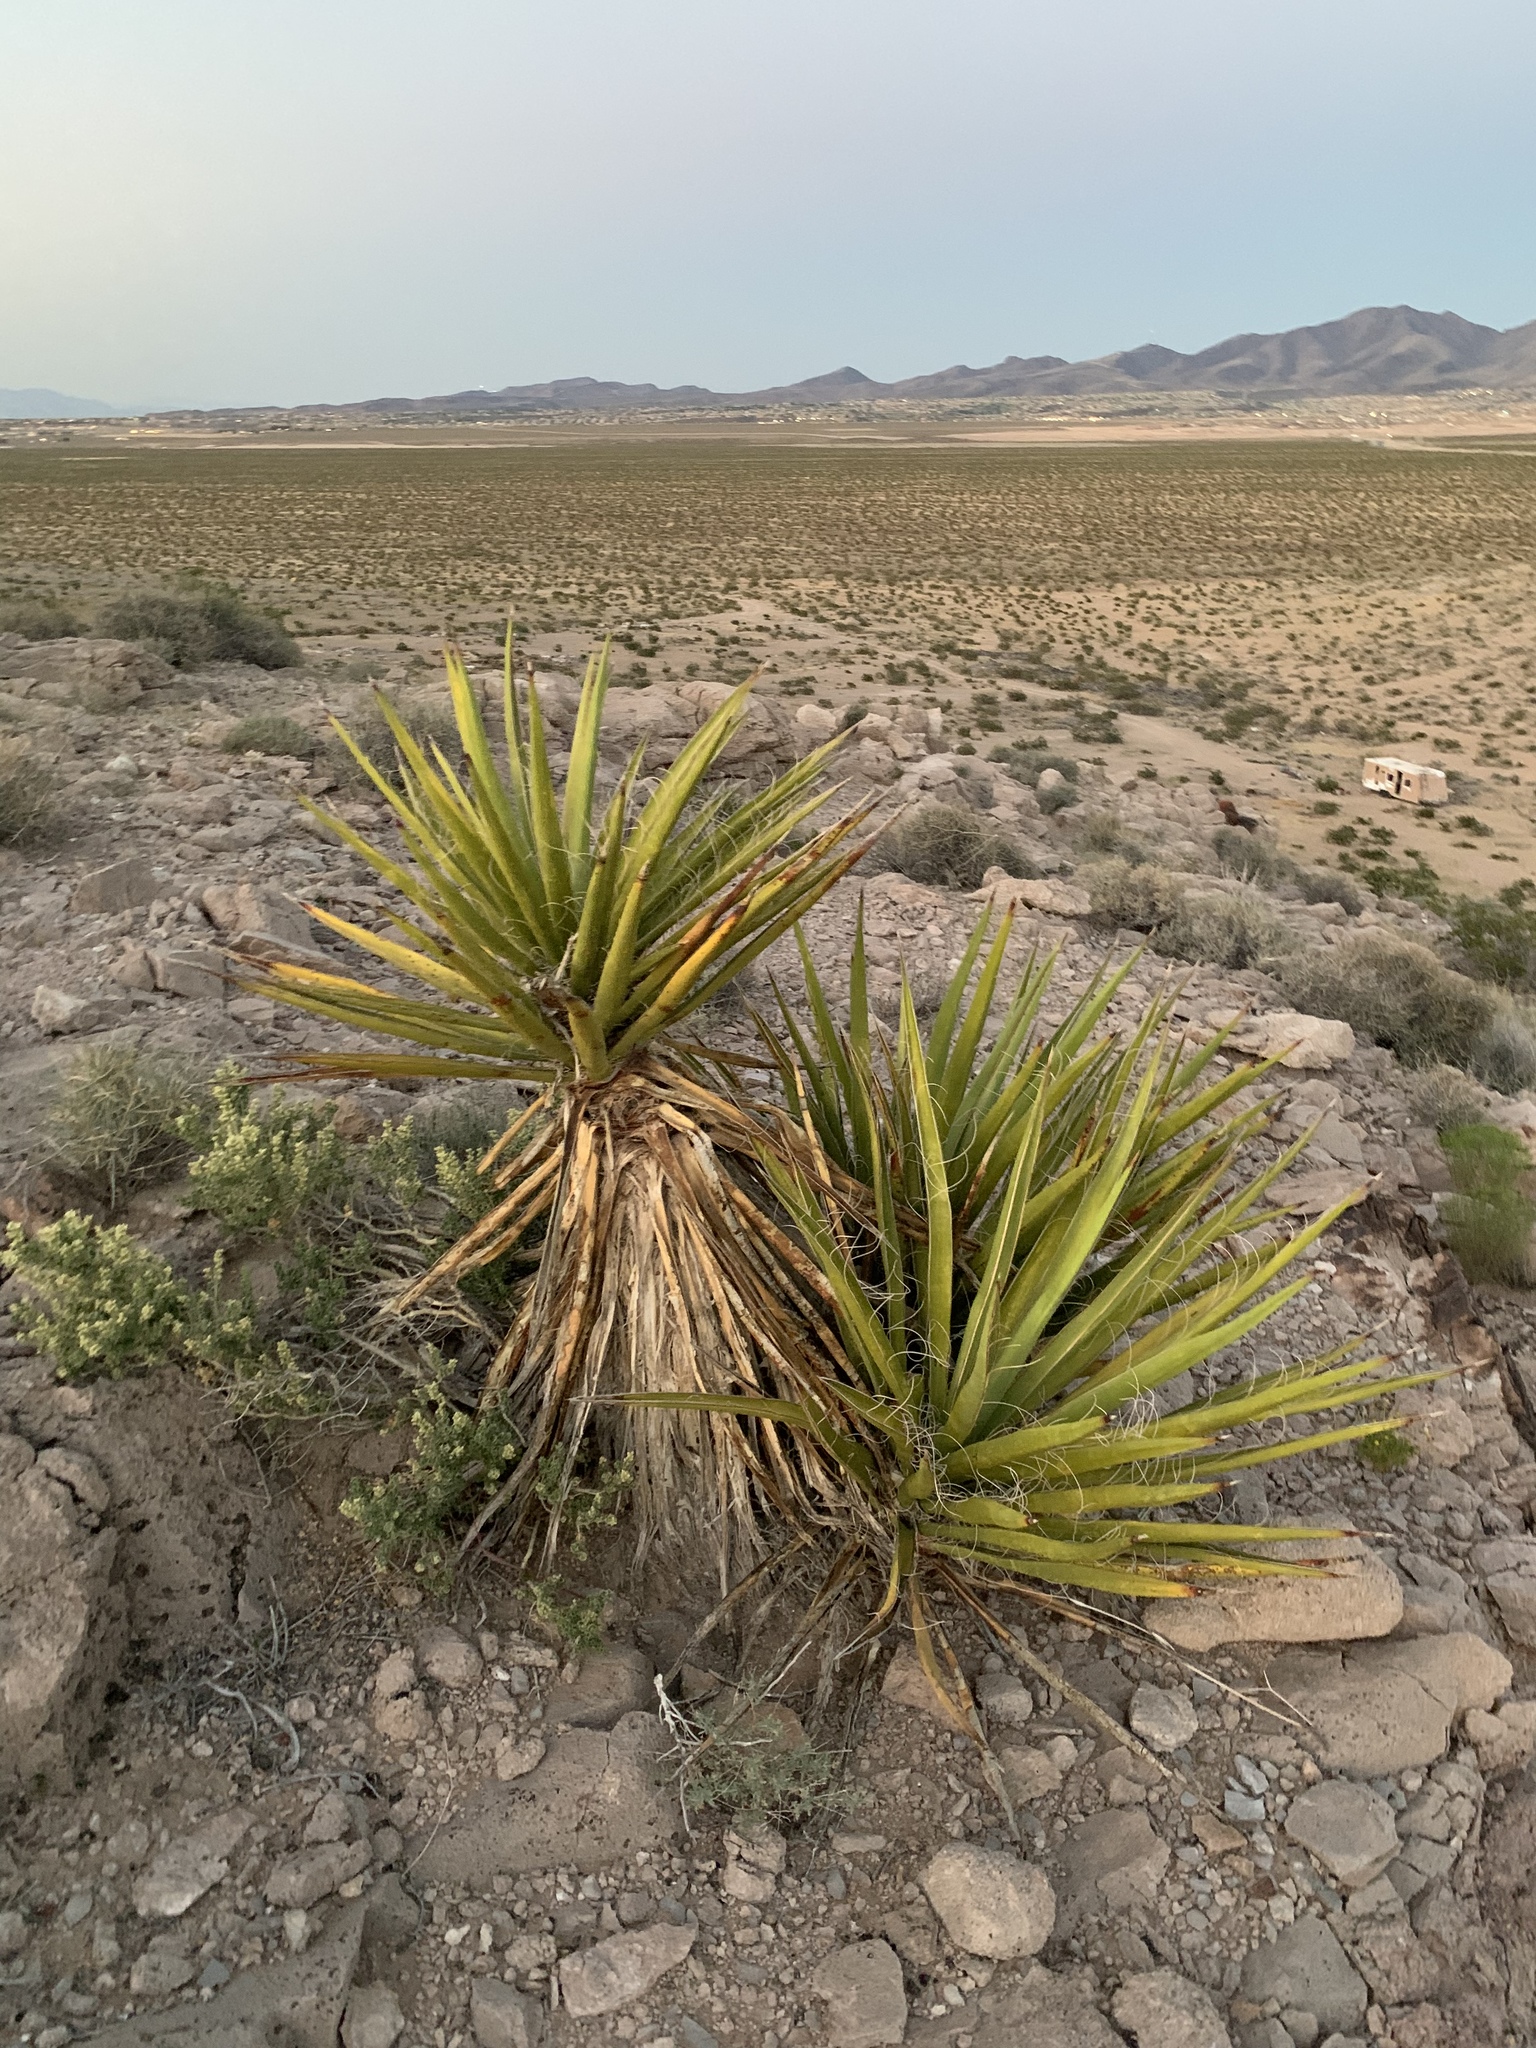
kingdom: Plantae
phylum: Tracheophyta
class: Liliopsida
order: Asparagales
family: Asparagaceae
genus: Yucca
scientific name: Yucca schidigera
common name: Mojave yucca
